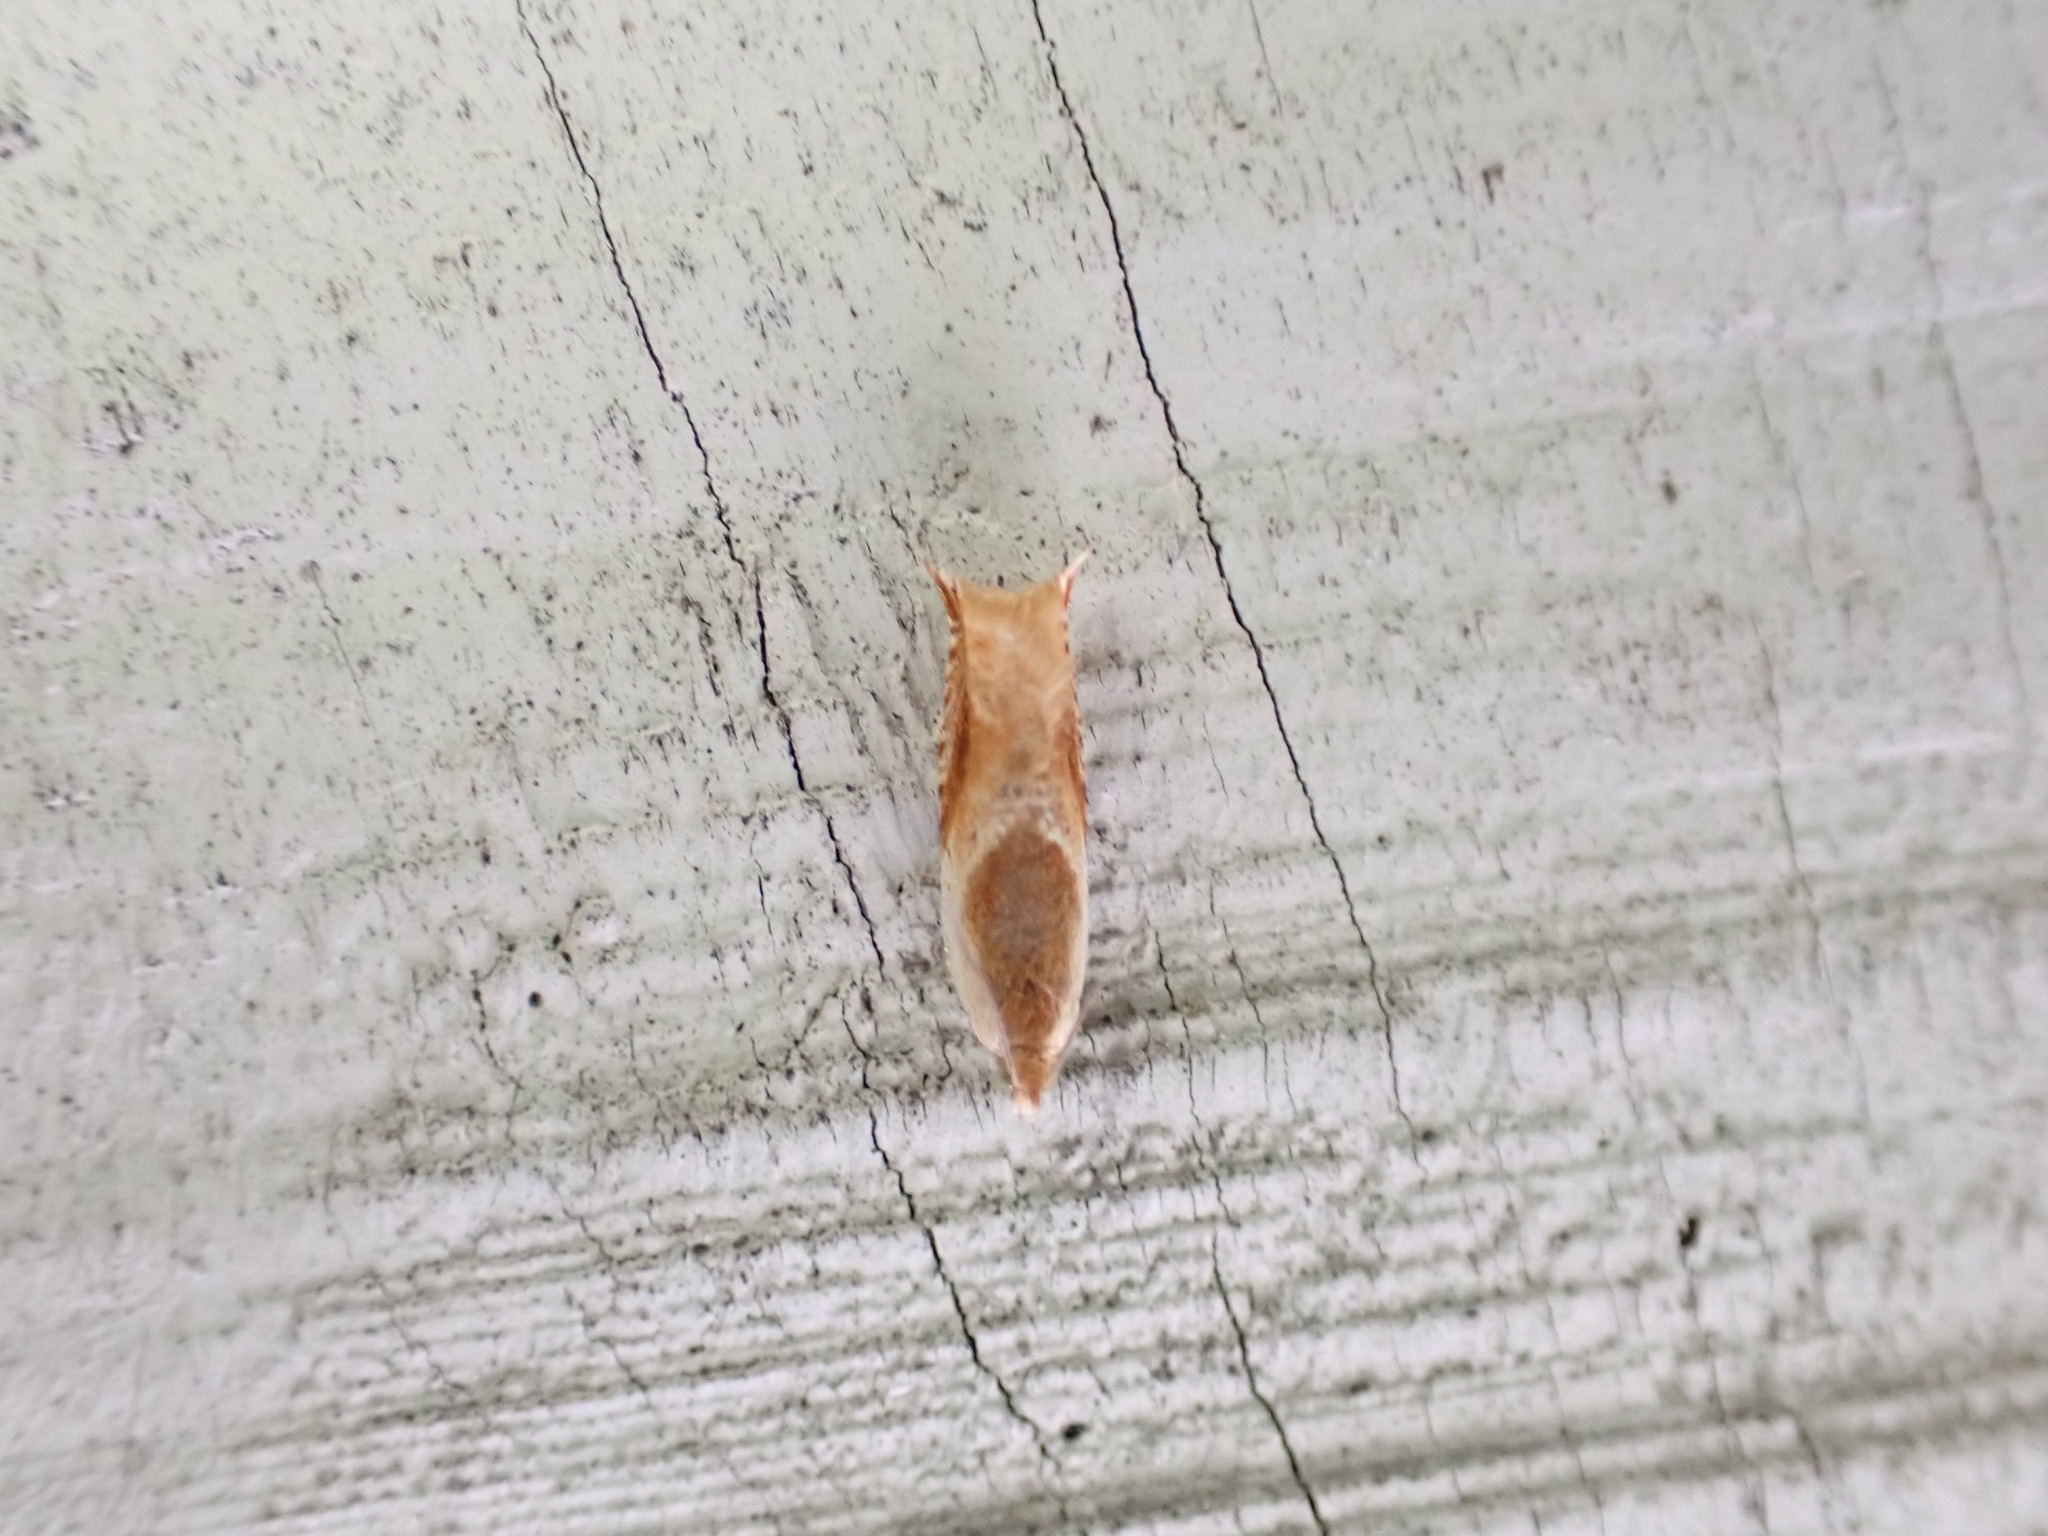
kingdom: Animalia
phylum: Arthropoda
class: Insecta
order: Lepidoptera
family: Tortricidae
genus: Ancylis
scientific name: Ancylis fuscociliana
